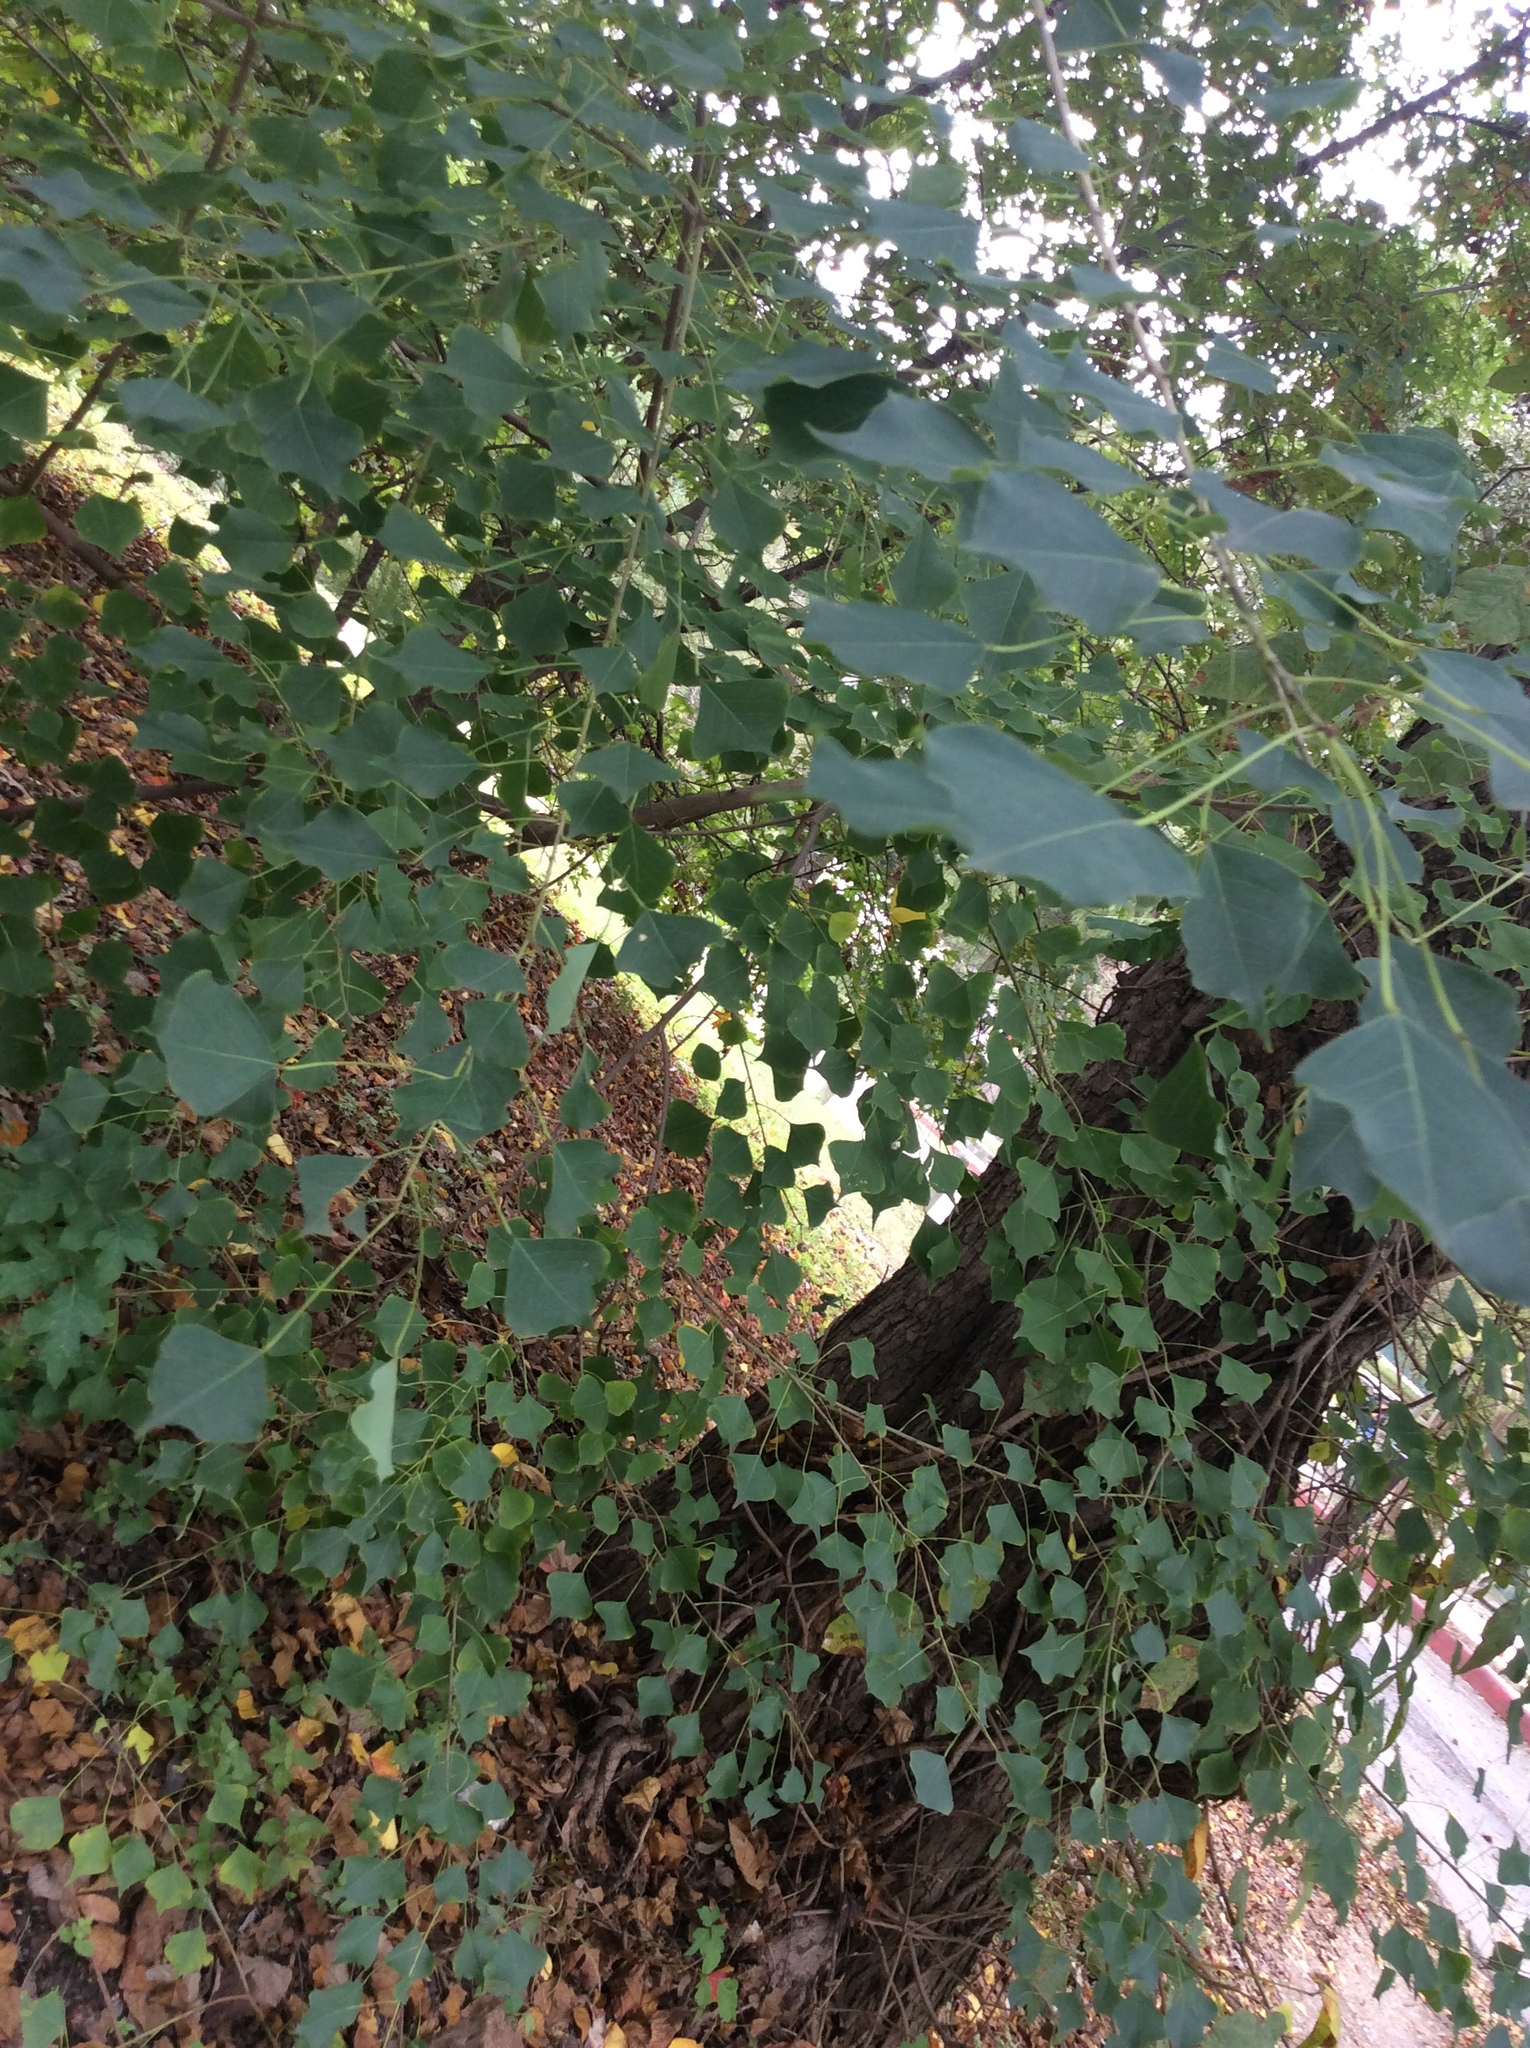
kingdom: Plantae
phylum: Tracheophyta
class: Magnoliopsida
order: Malpighiales
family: Euphorbiaceae
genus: Triadica
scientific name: Triadica sebifera
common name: Chinese tallow
